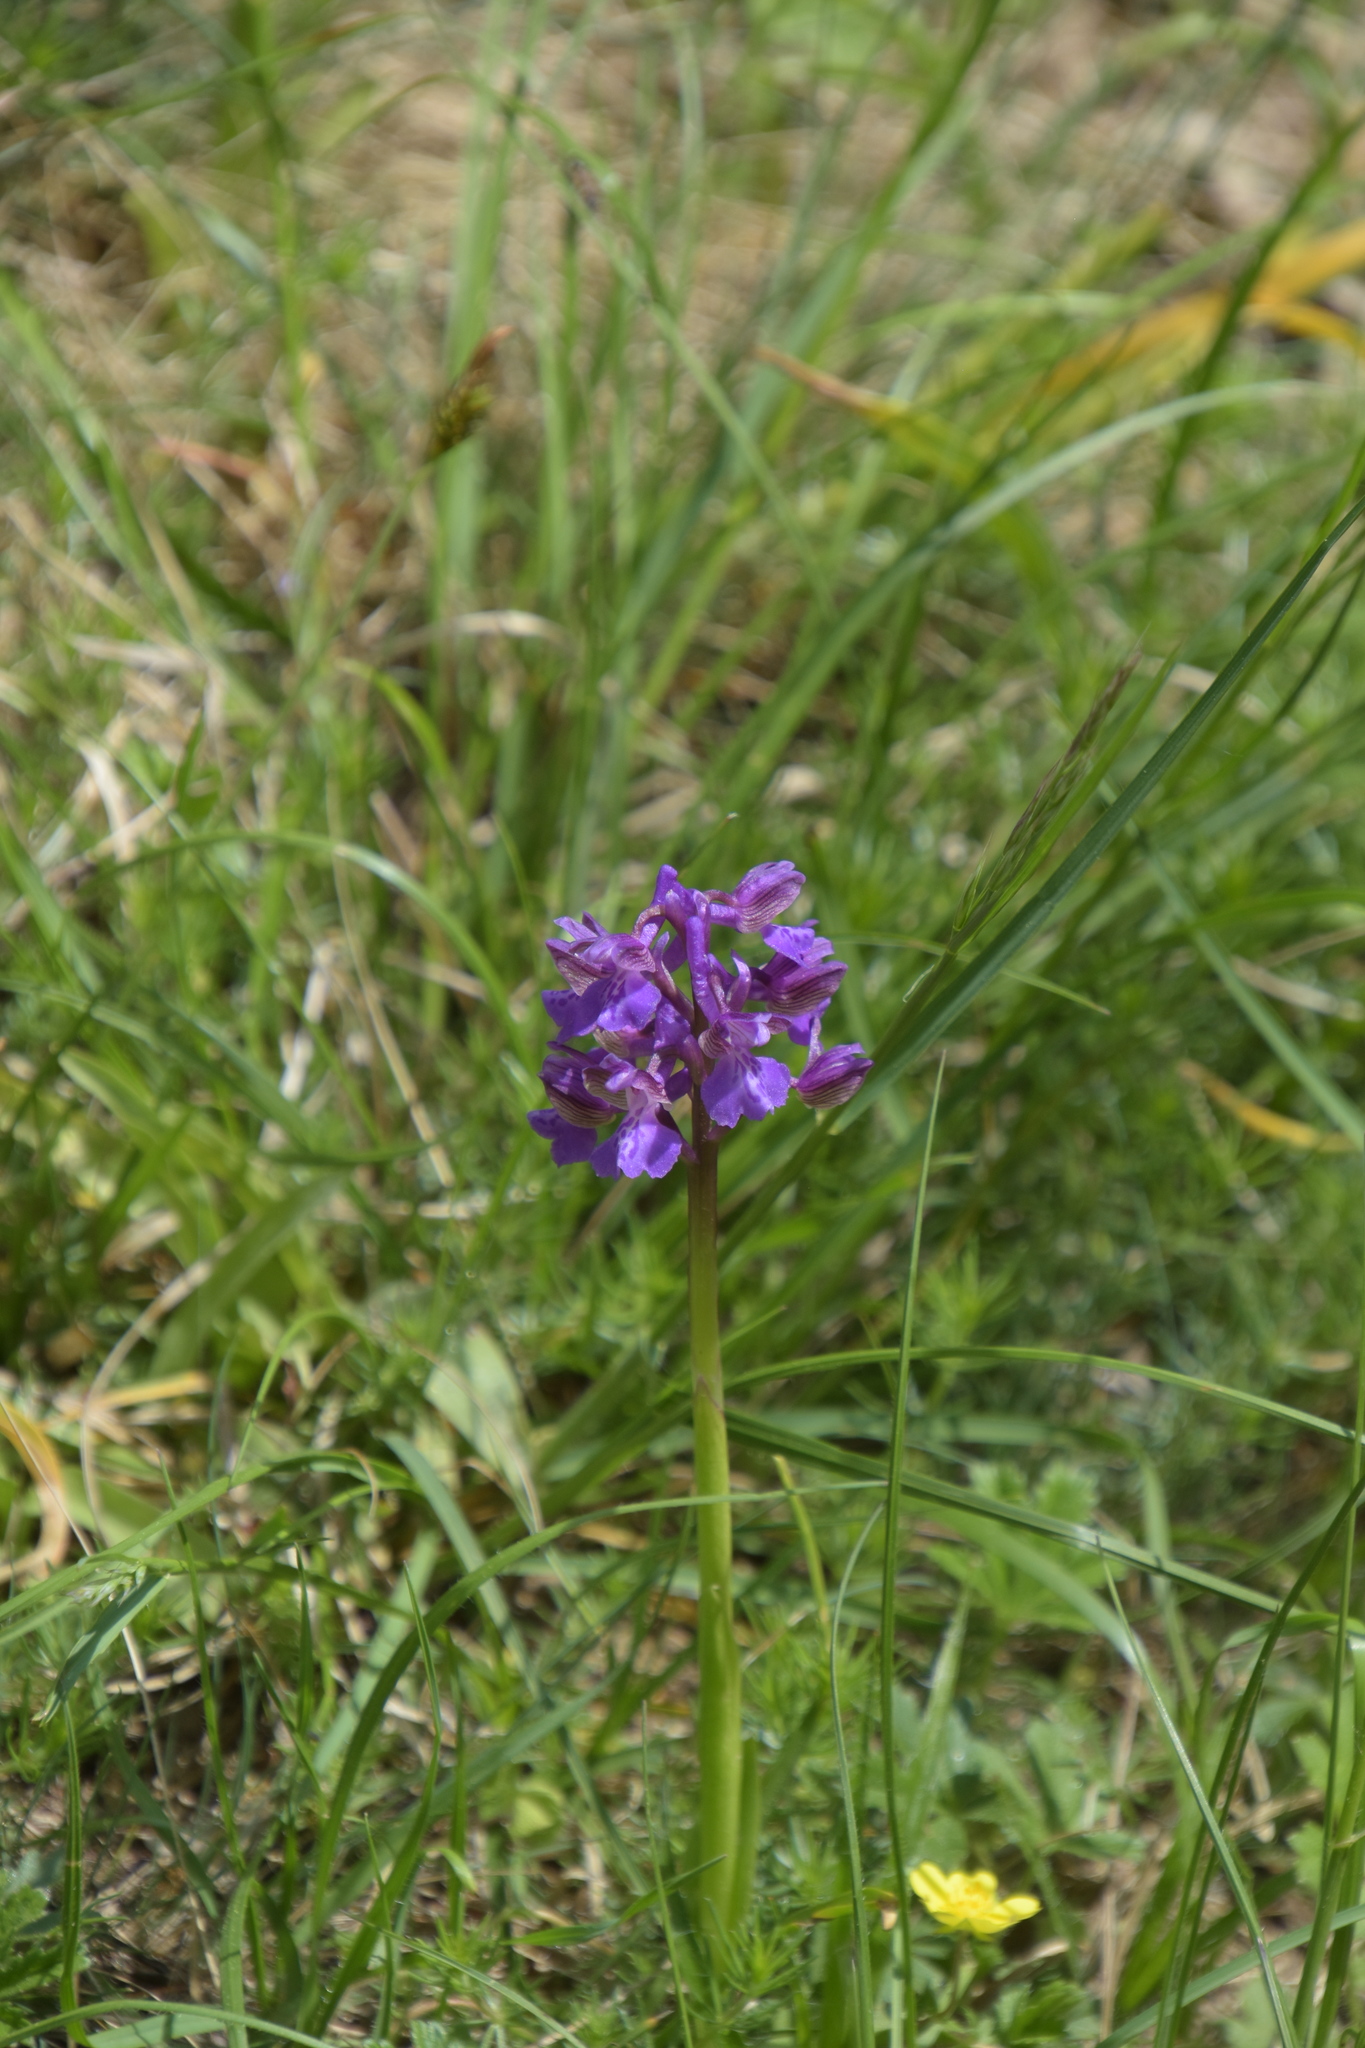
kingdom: Plantae
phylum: Tracheophyta
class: Liliopsida
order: Asparagales
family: Orchidaceae
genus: Anacamptis
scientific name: Anacamptis morio
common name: Green-winged orchid
